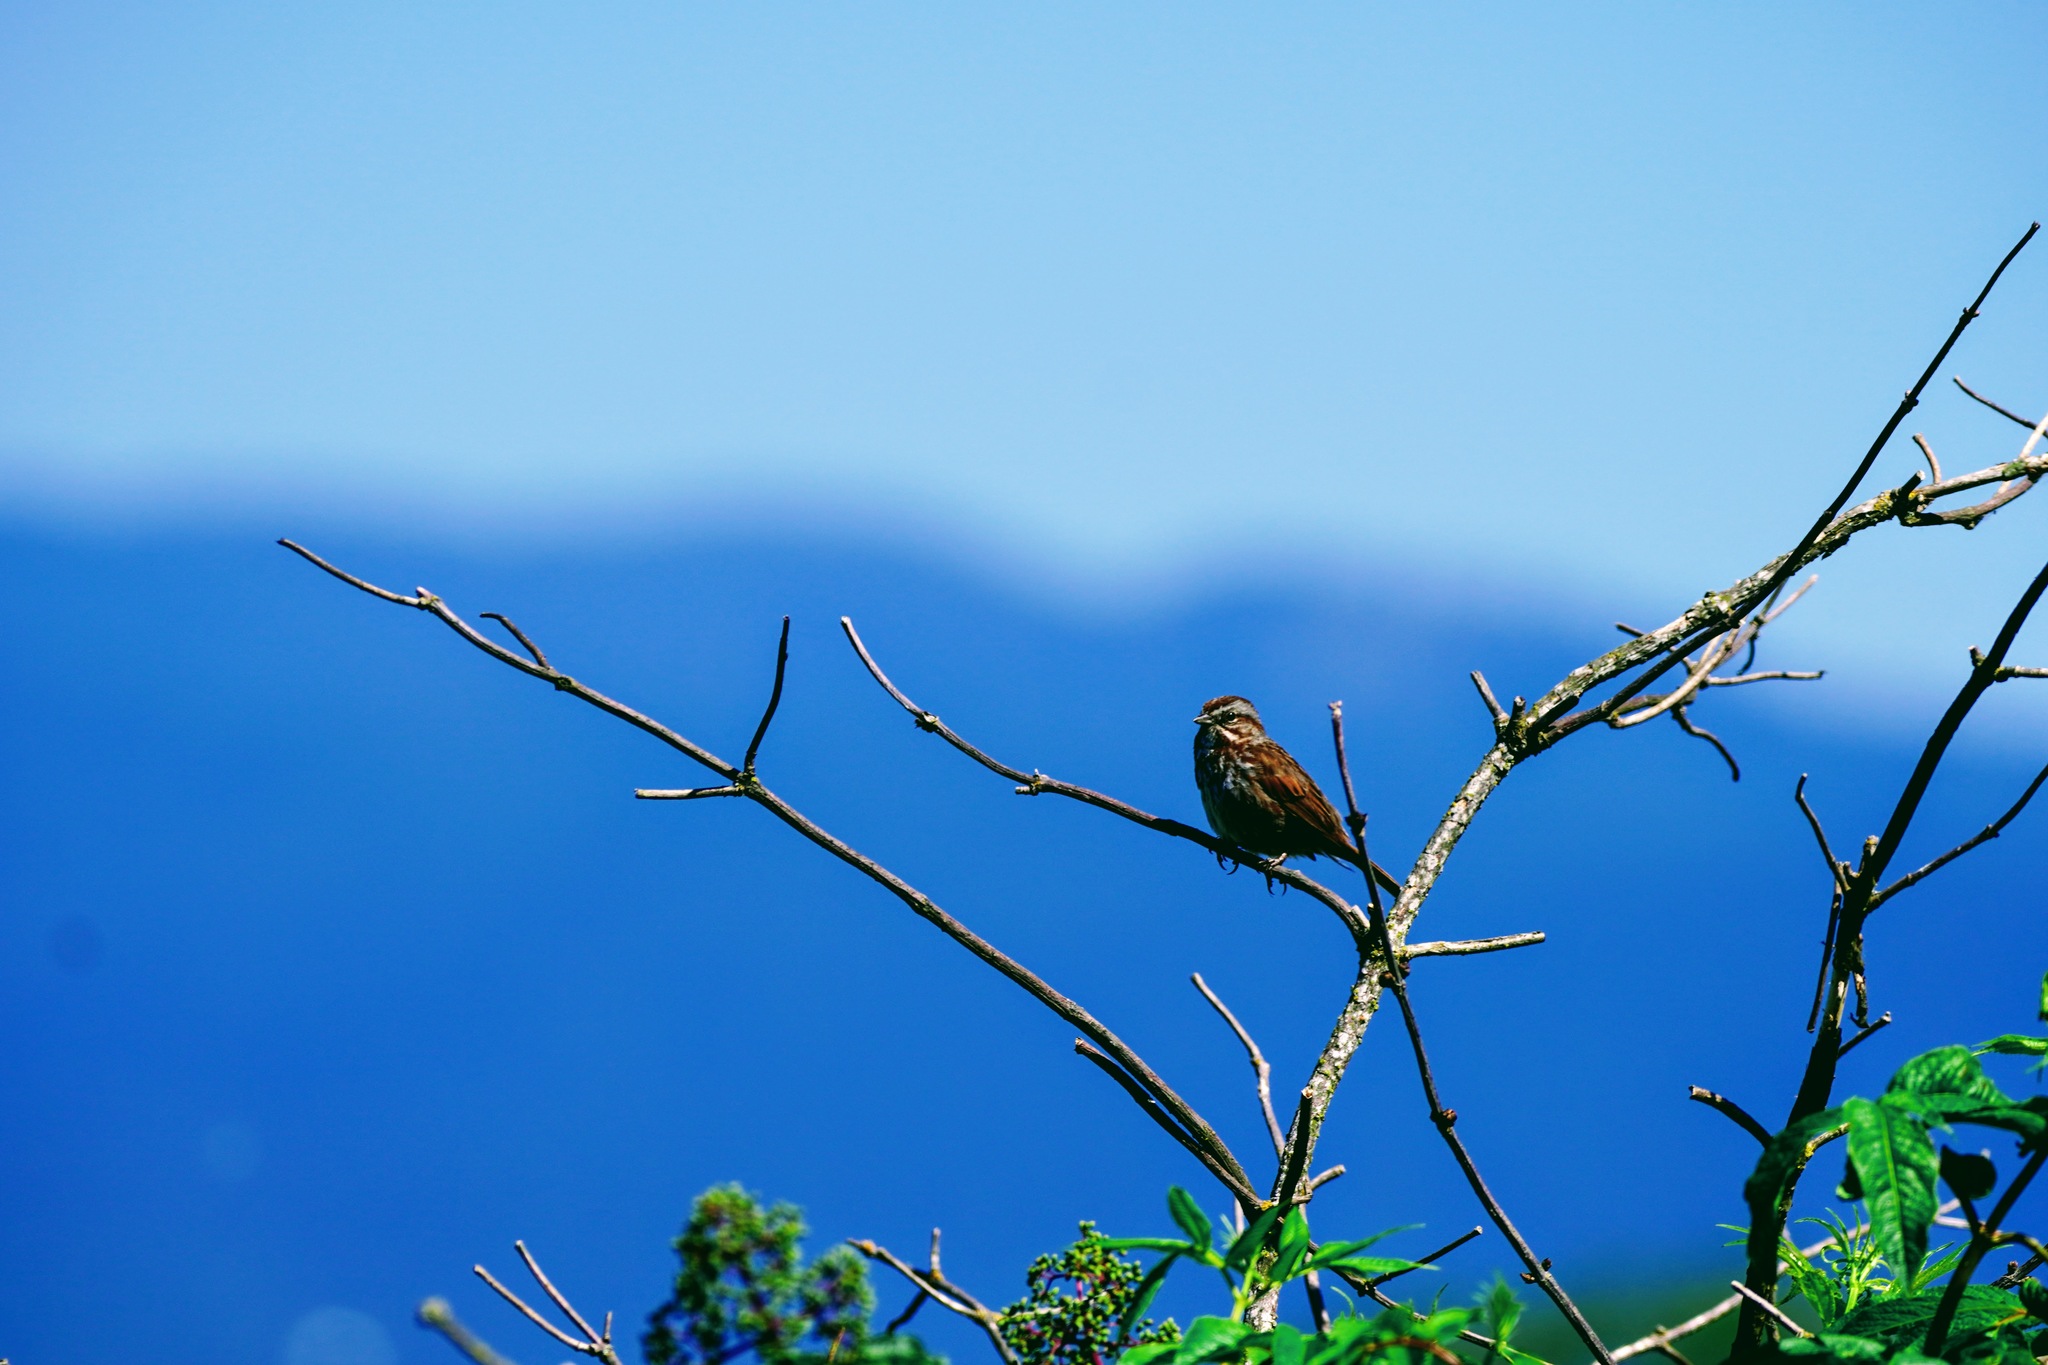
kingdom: Animalia
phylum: Chordata
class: Aves
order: Passeriformes
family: Passerellidae
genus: Melospiza
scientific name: Melospiza melodia
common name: Song sparrow
